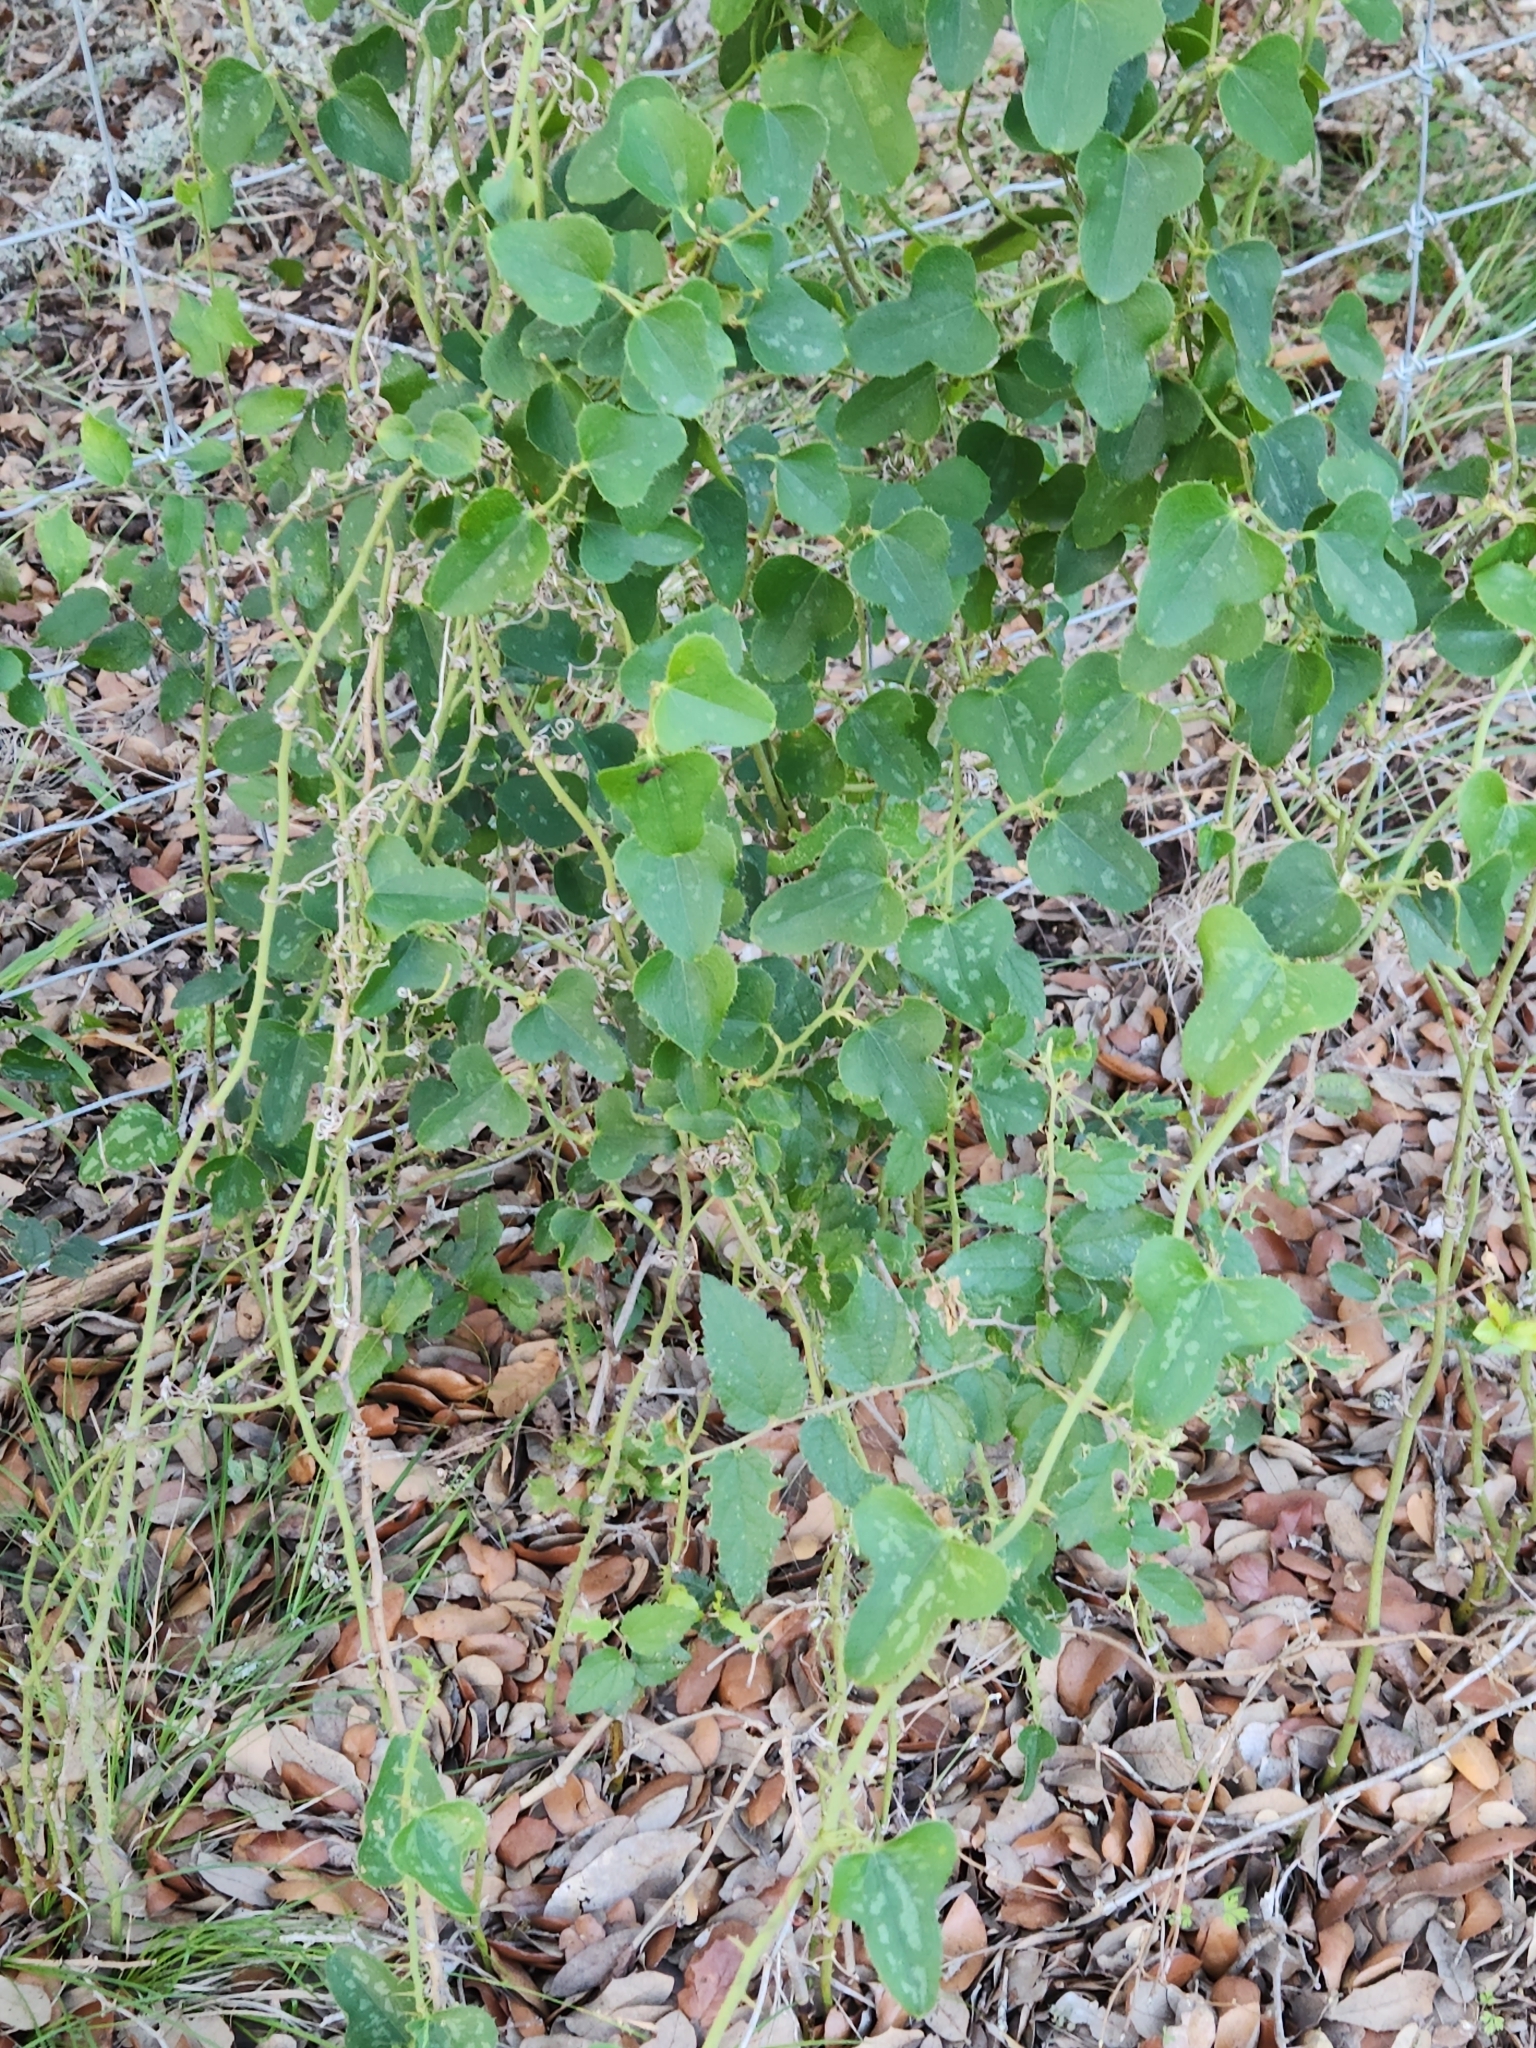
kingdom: Plantae
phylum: Tracheophyta
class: Liliopsida
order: Liliales
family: Smilacaceae
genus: Smilax
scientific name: Smilax bona-nox
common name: Catbrier
